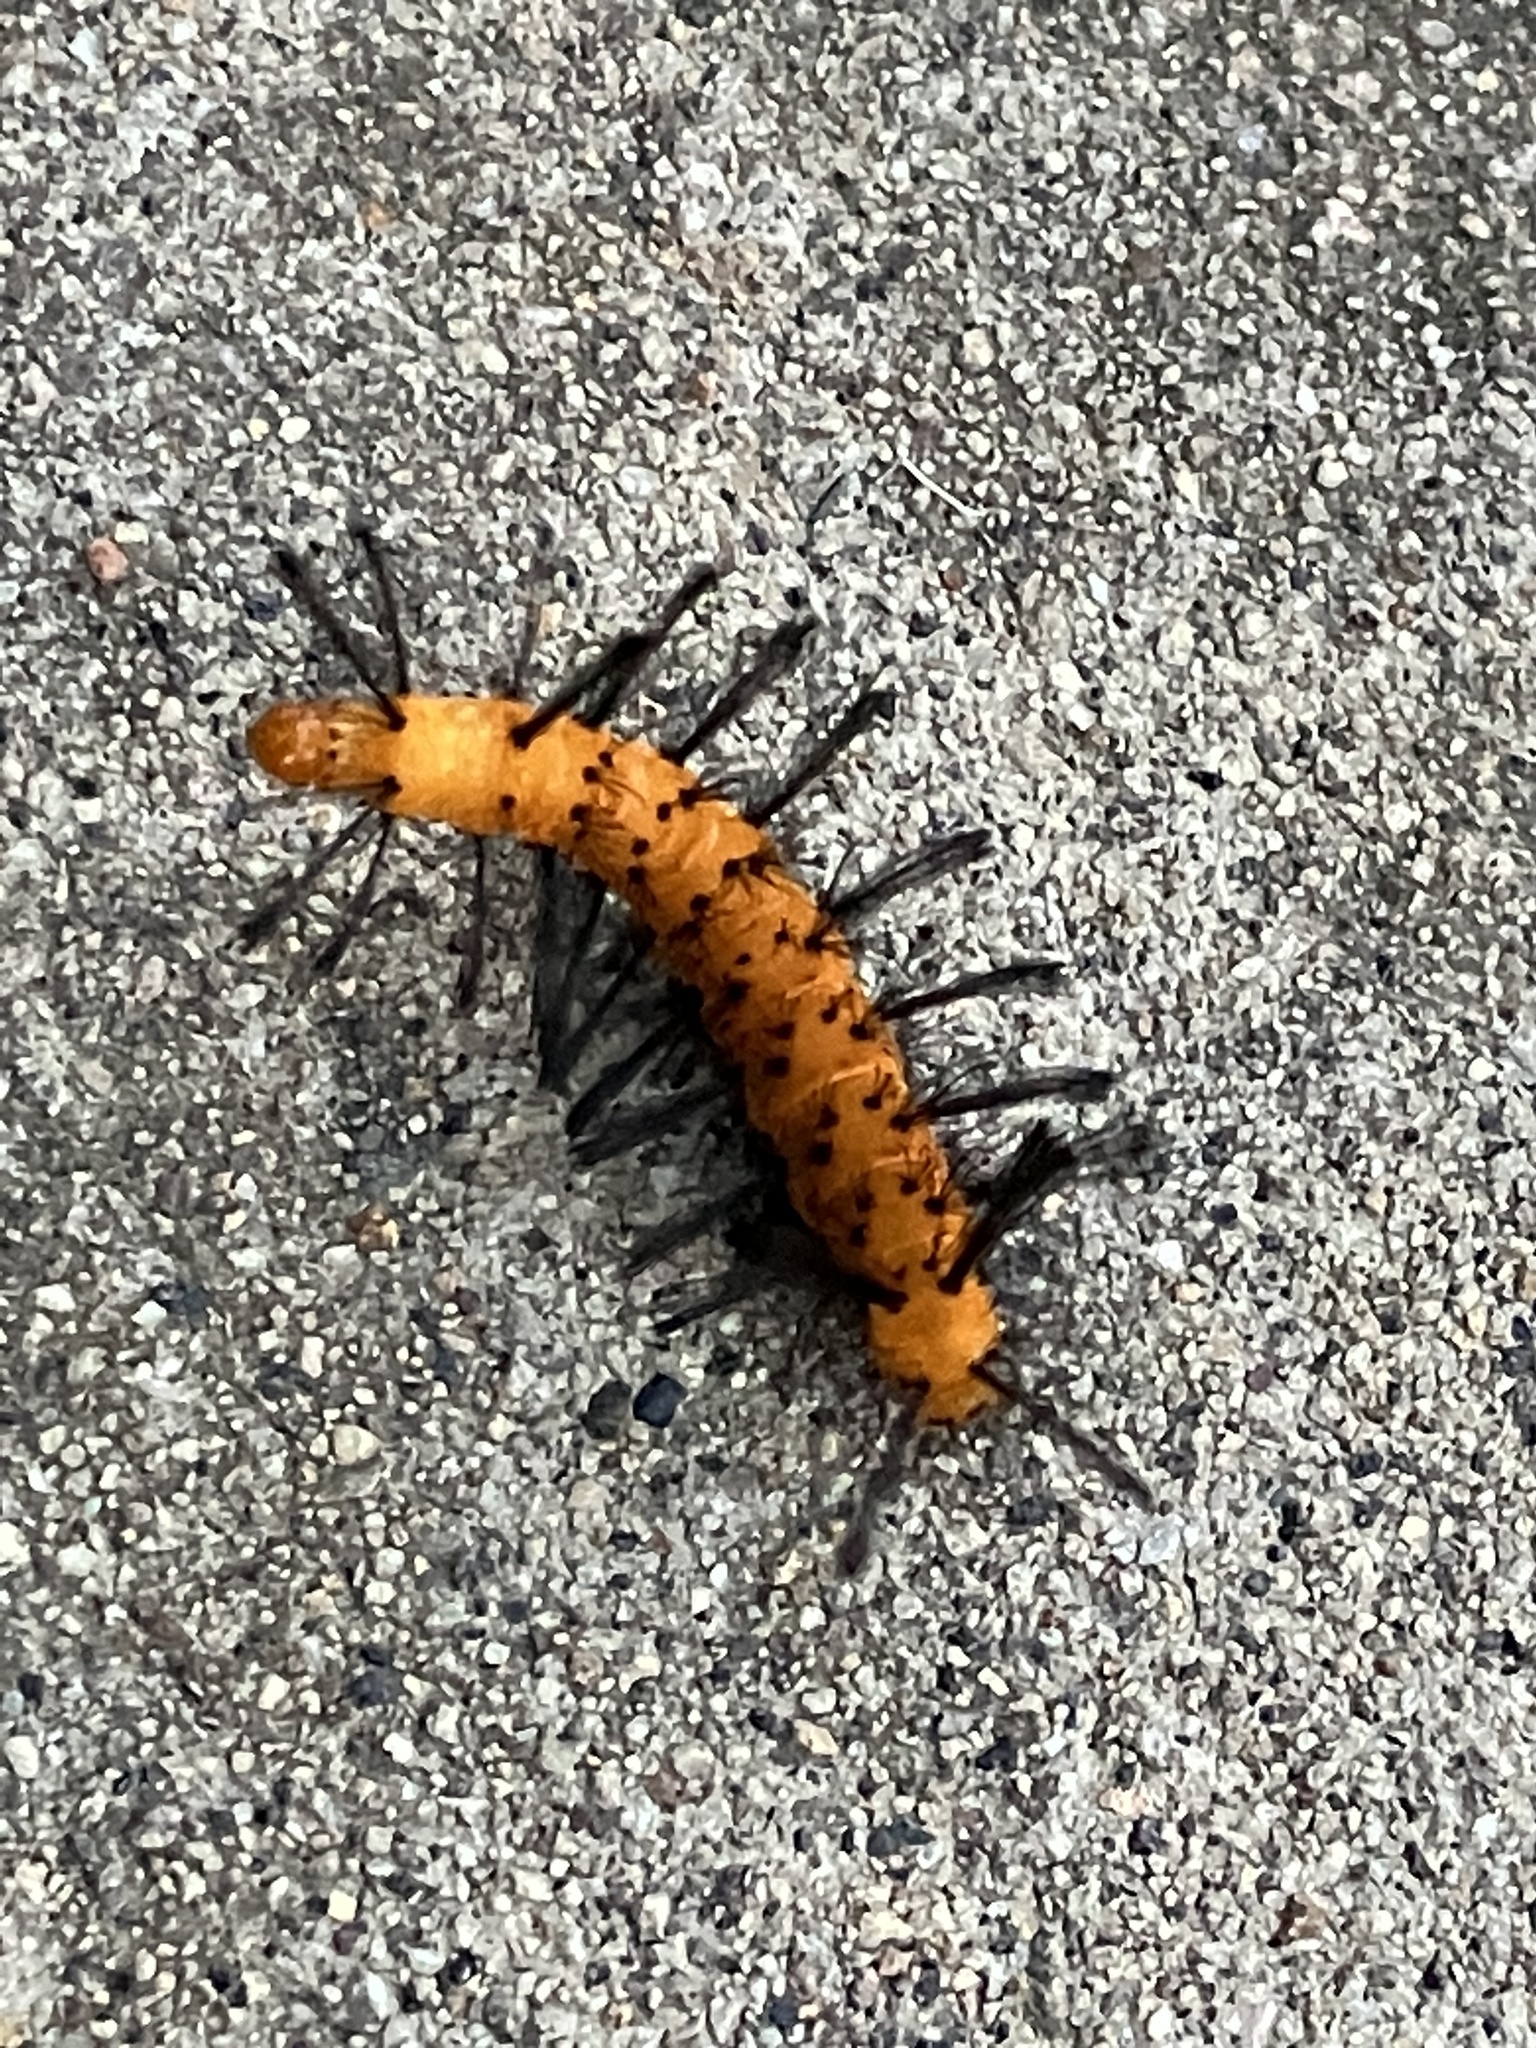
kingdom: Animalia
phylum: Arthropoda
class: Insecta
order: Lepidoptera
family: Erebidae
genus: Syntomeida
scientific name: Syntomeida epilais
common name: Polka-dot wasp moth
